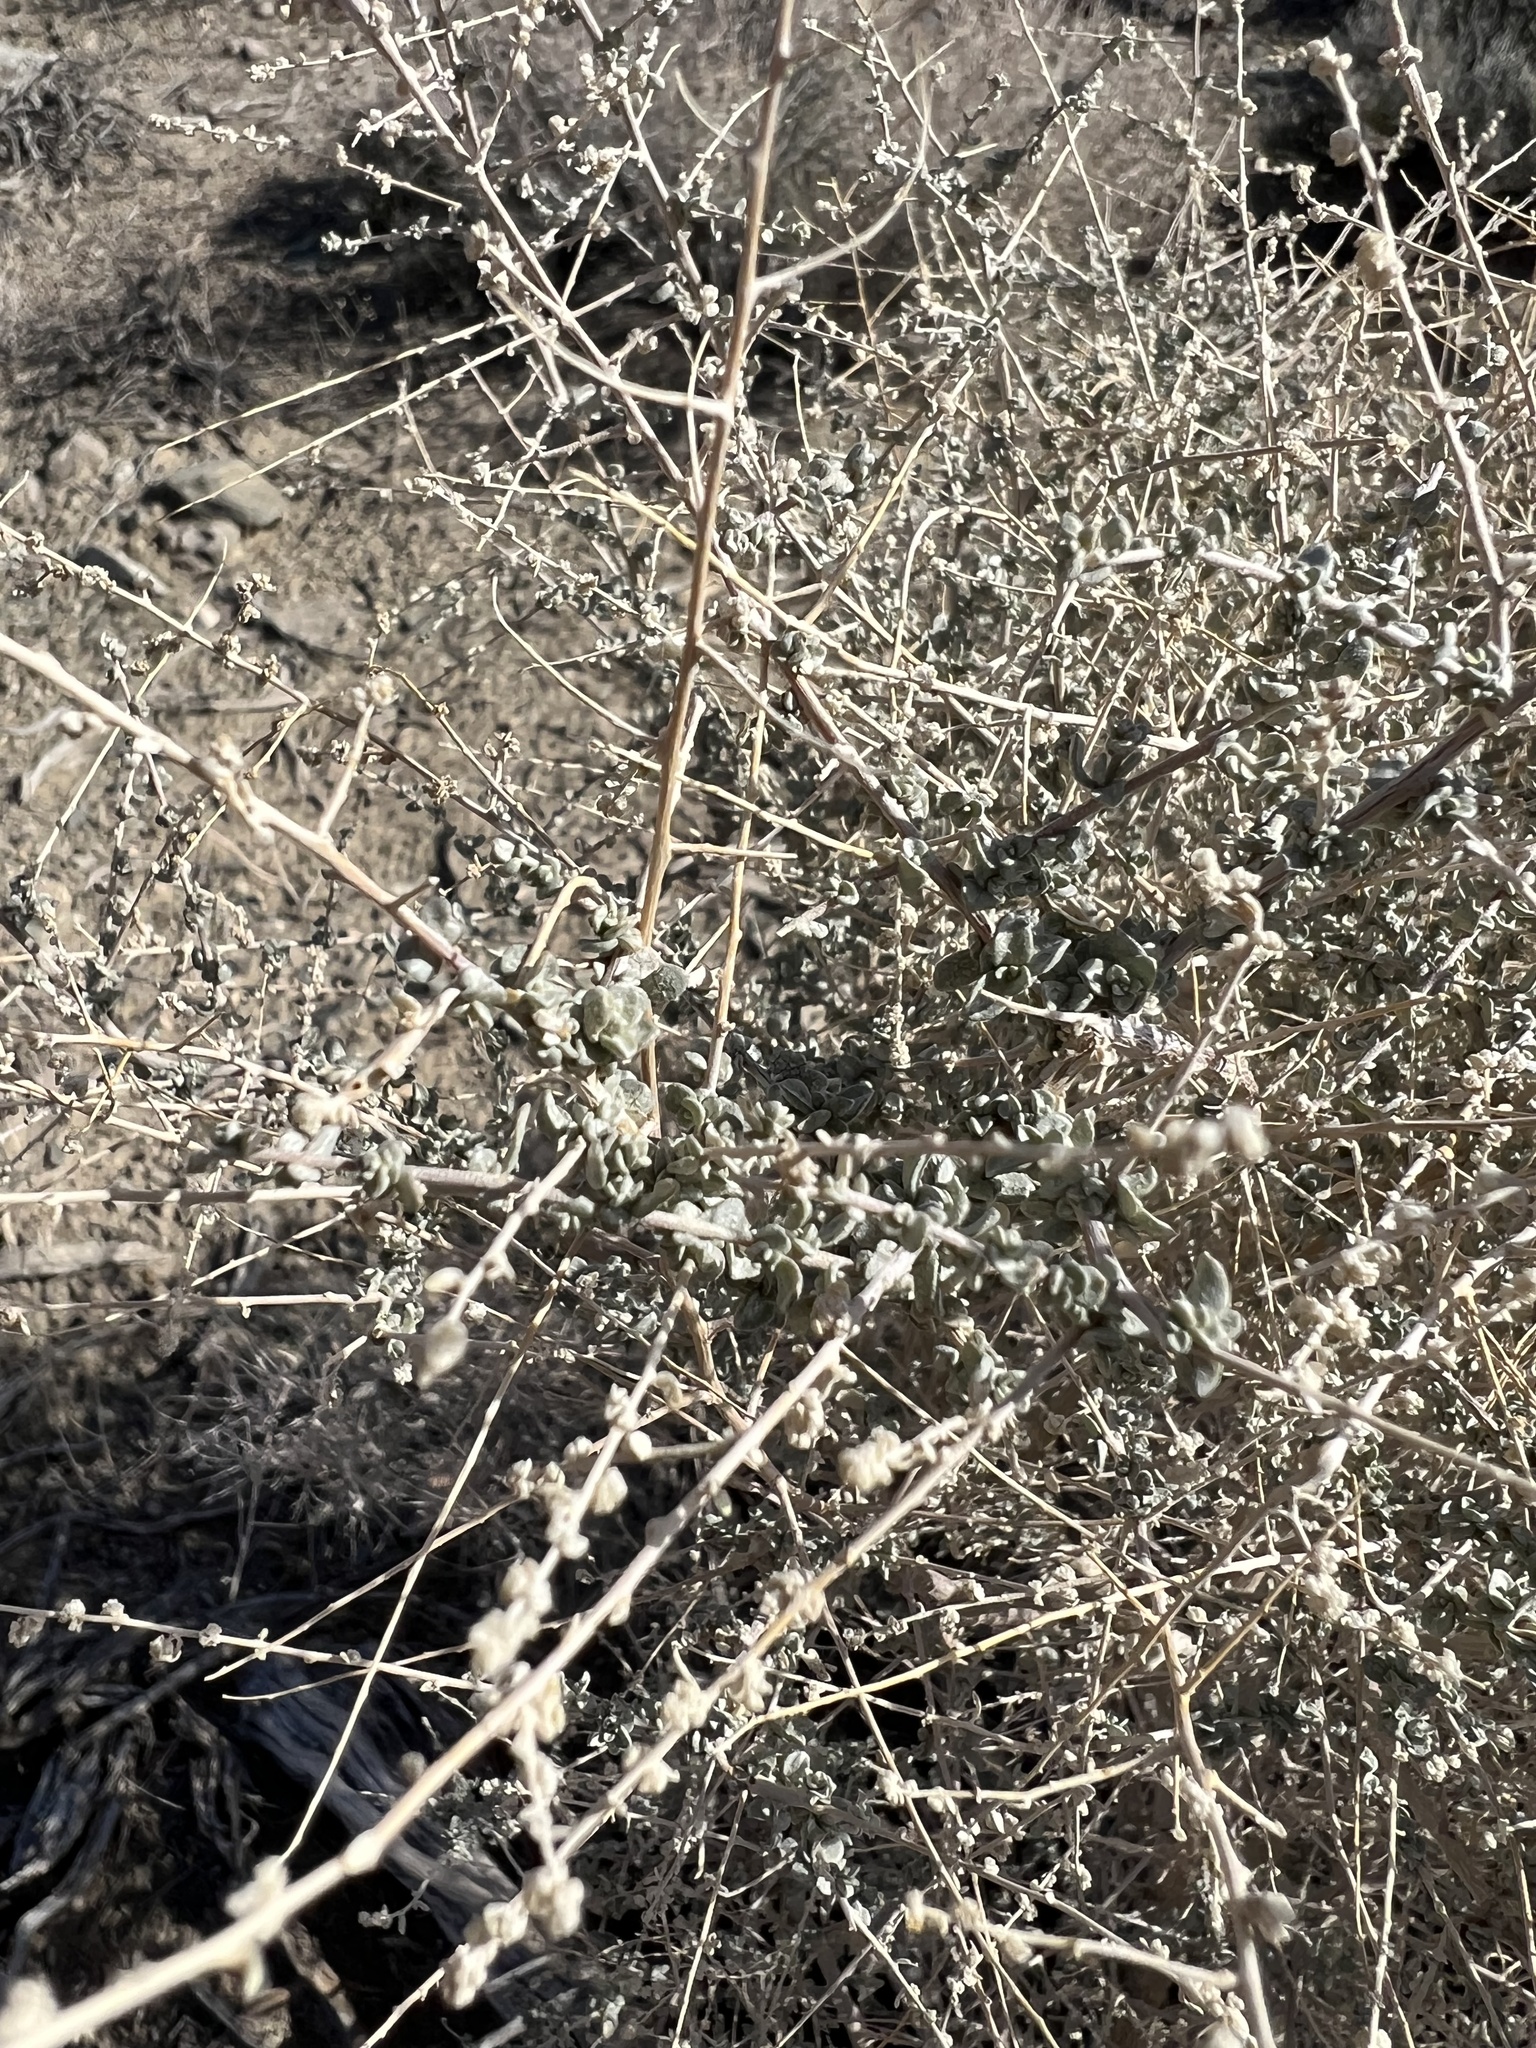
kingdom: Plantae
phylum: Tracheophyta
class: Magnoliopsida
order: Caryophyllales
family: Amaranthaceae
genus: Atriplex
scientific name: Atriplex polycarpa
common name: Desert saltbush
